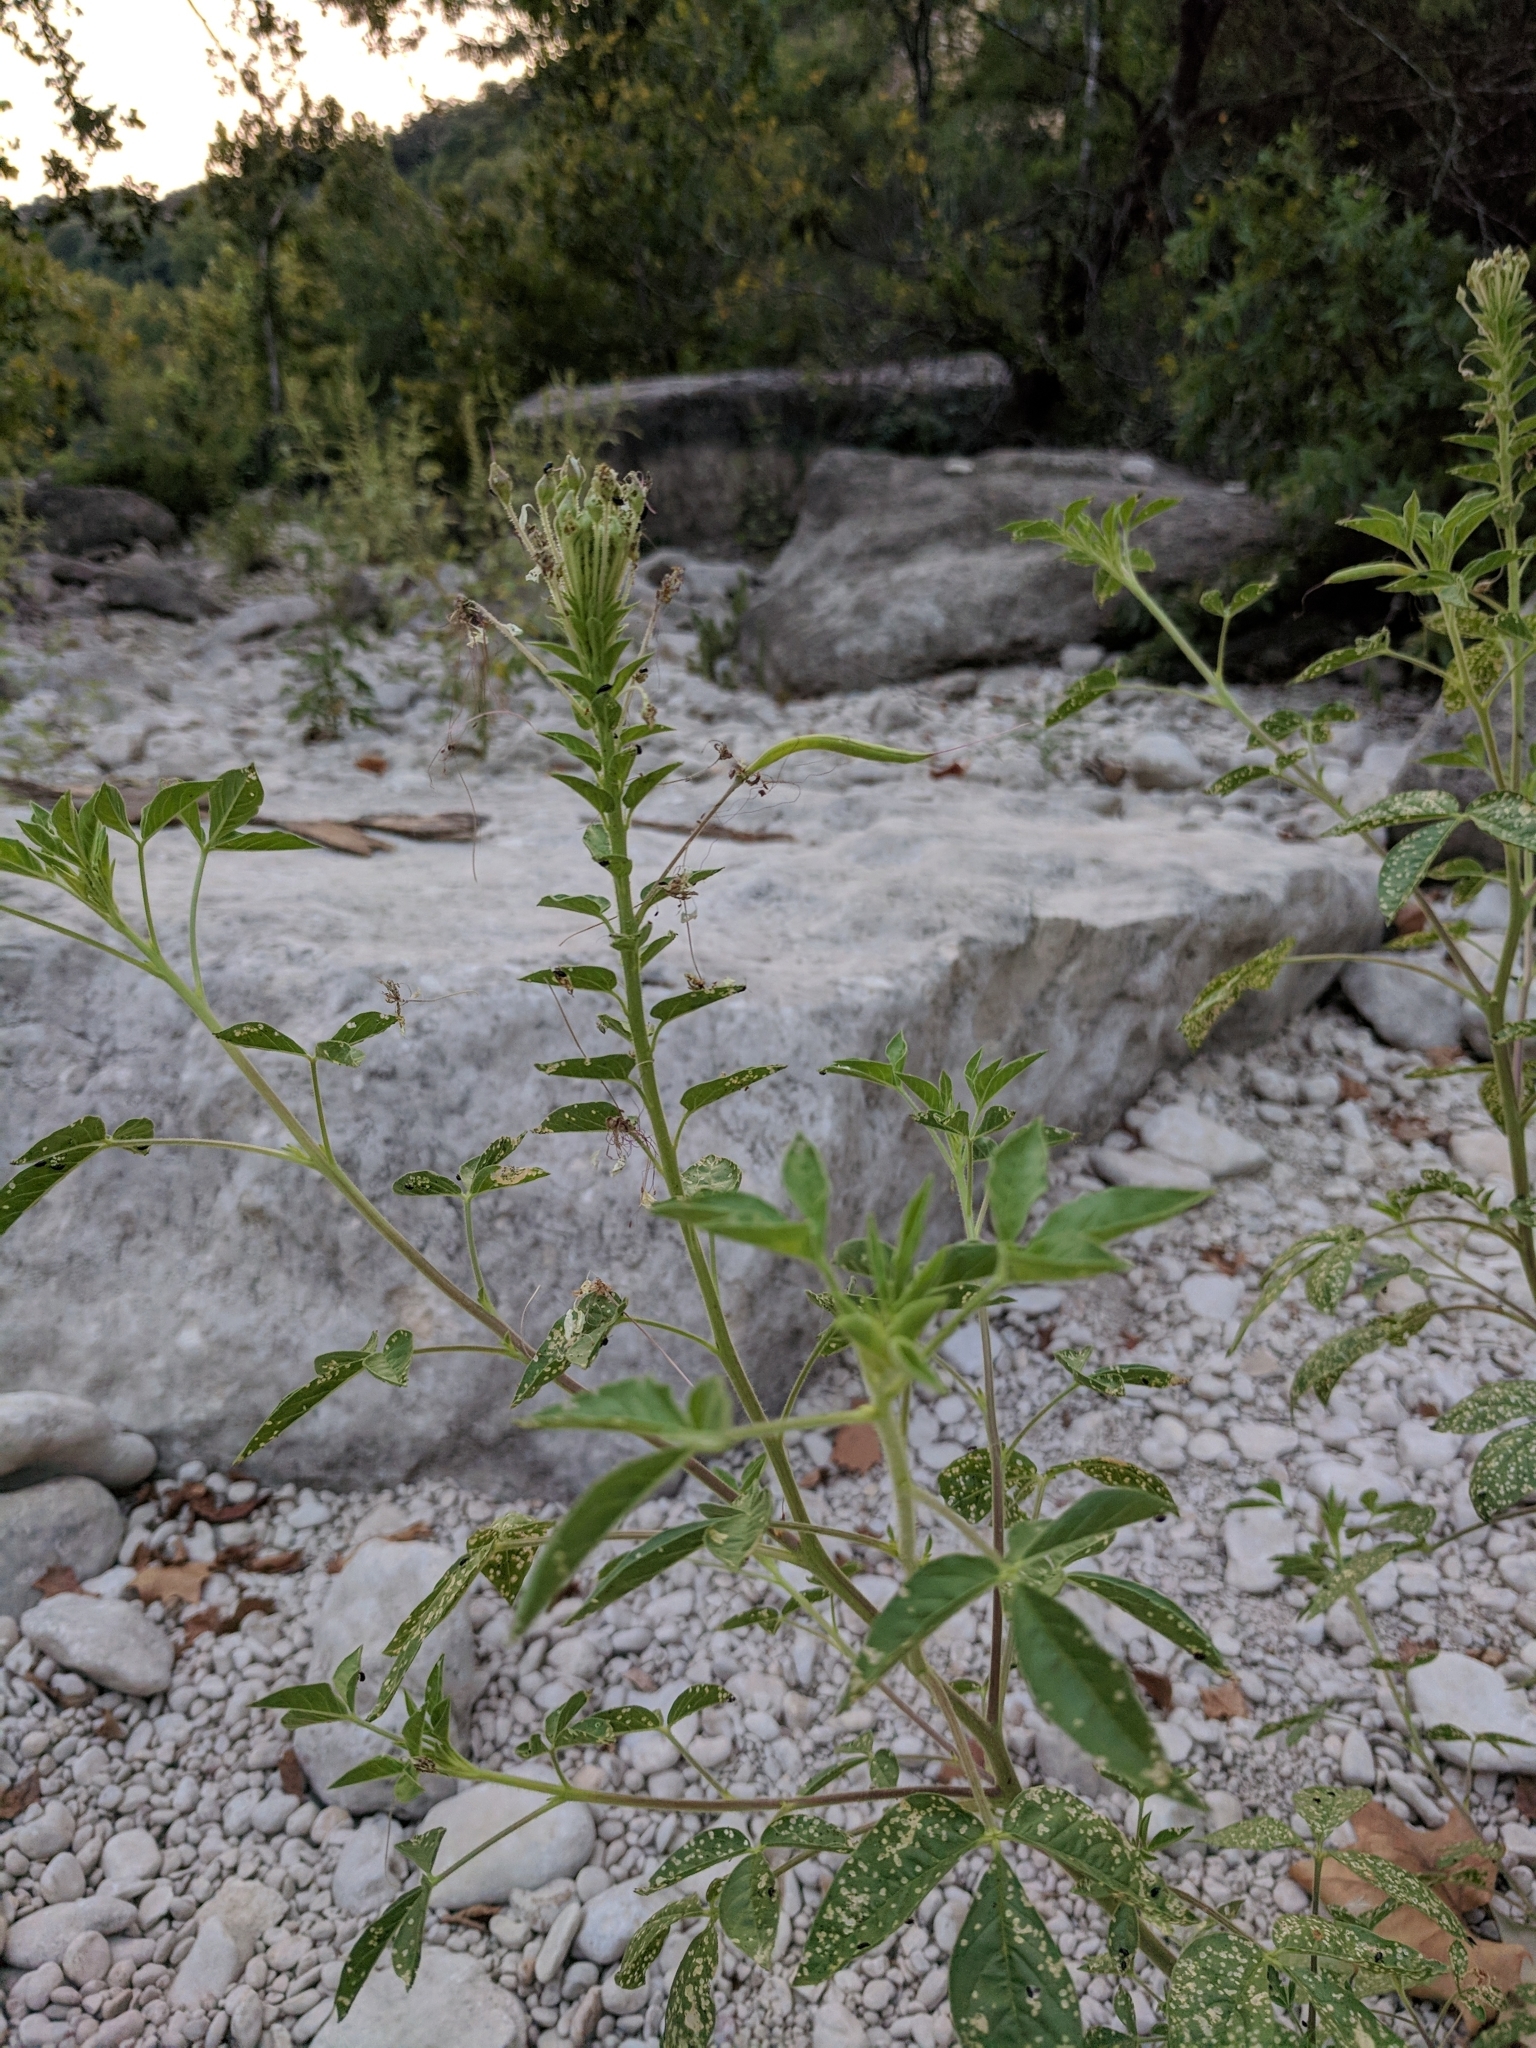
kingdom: Plantae
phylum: Tracheophyta
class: Magnoliopsida
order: Brassicales
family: Cleomaceae
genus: Polanisia
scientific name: Polanisia dodecandra
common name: Clammyweed
